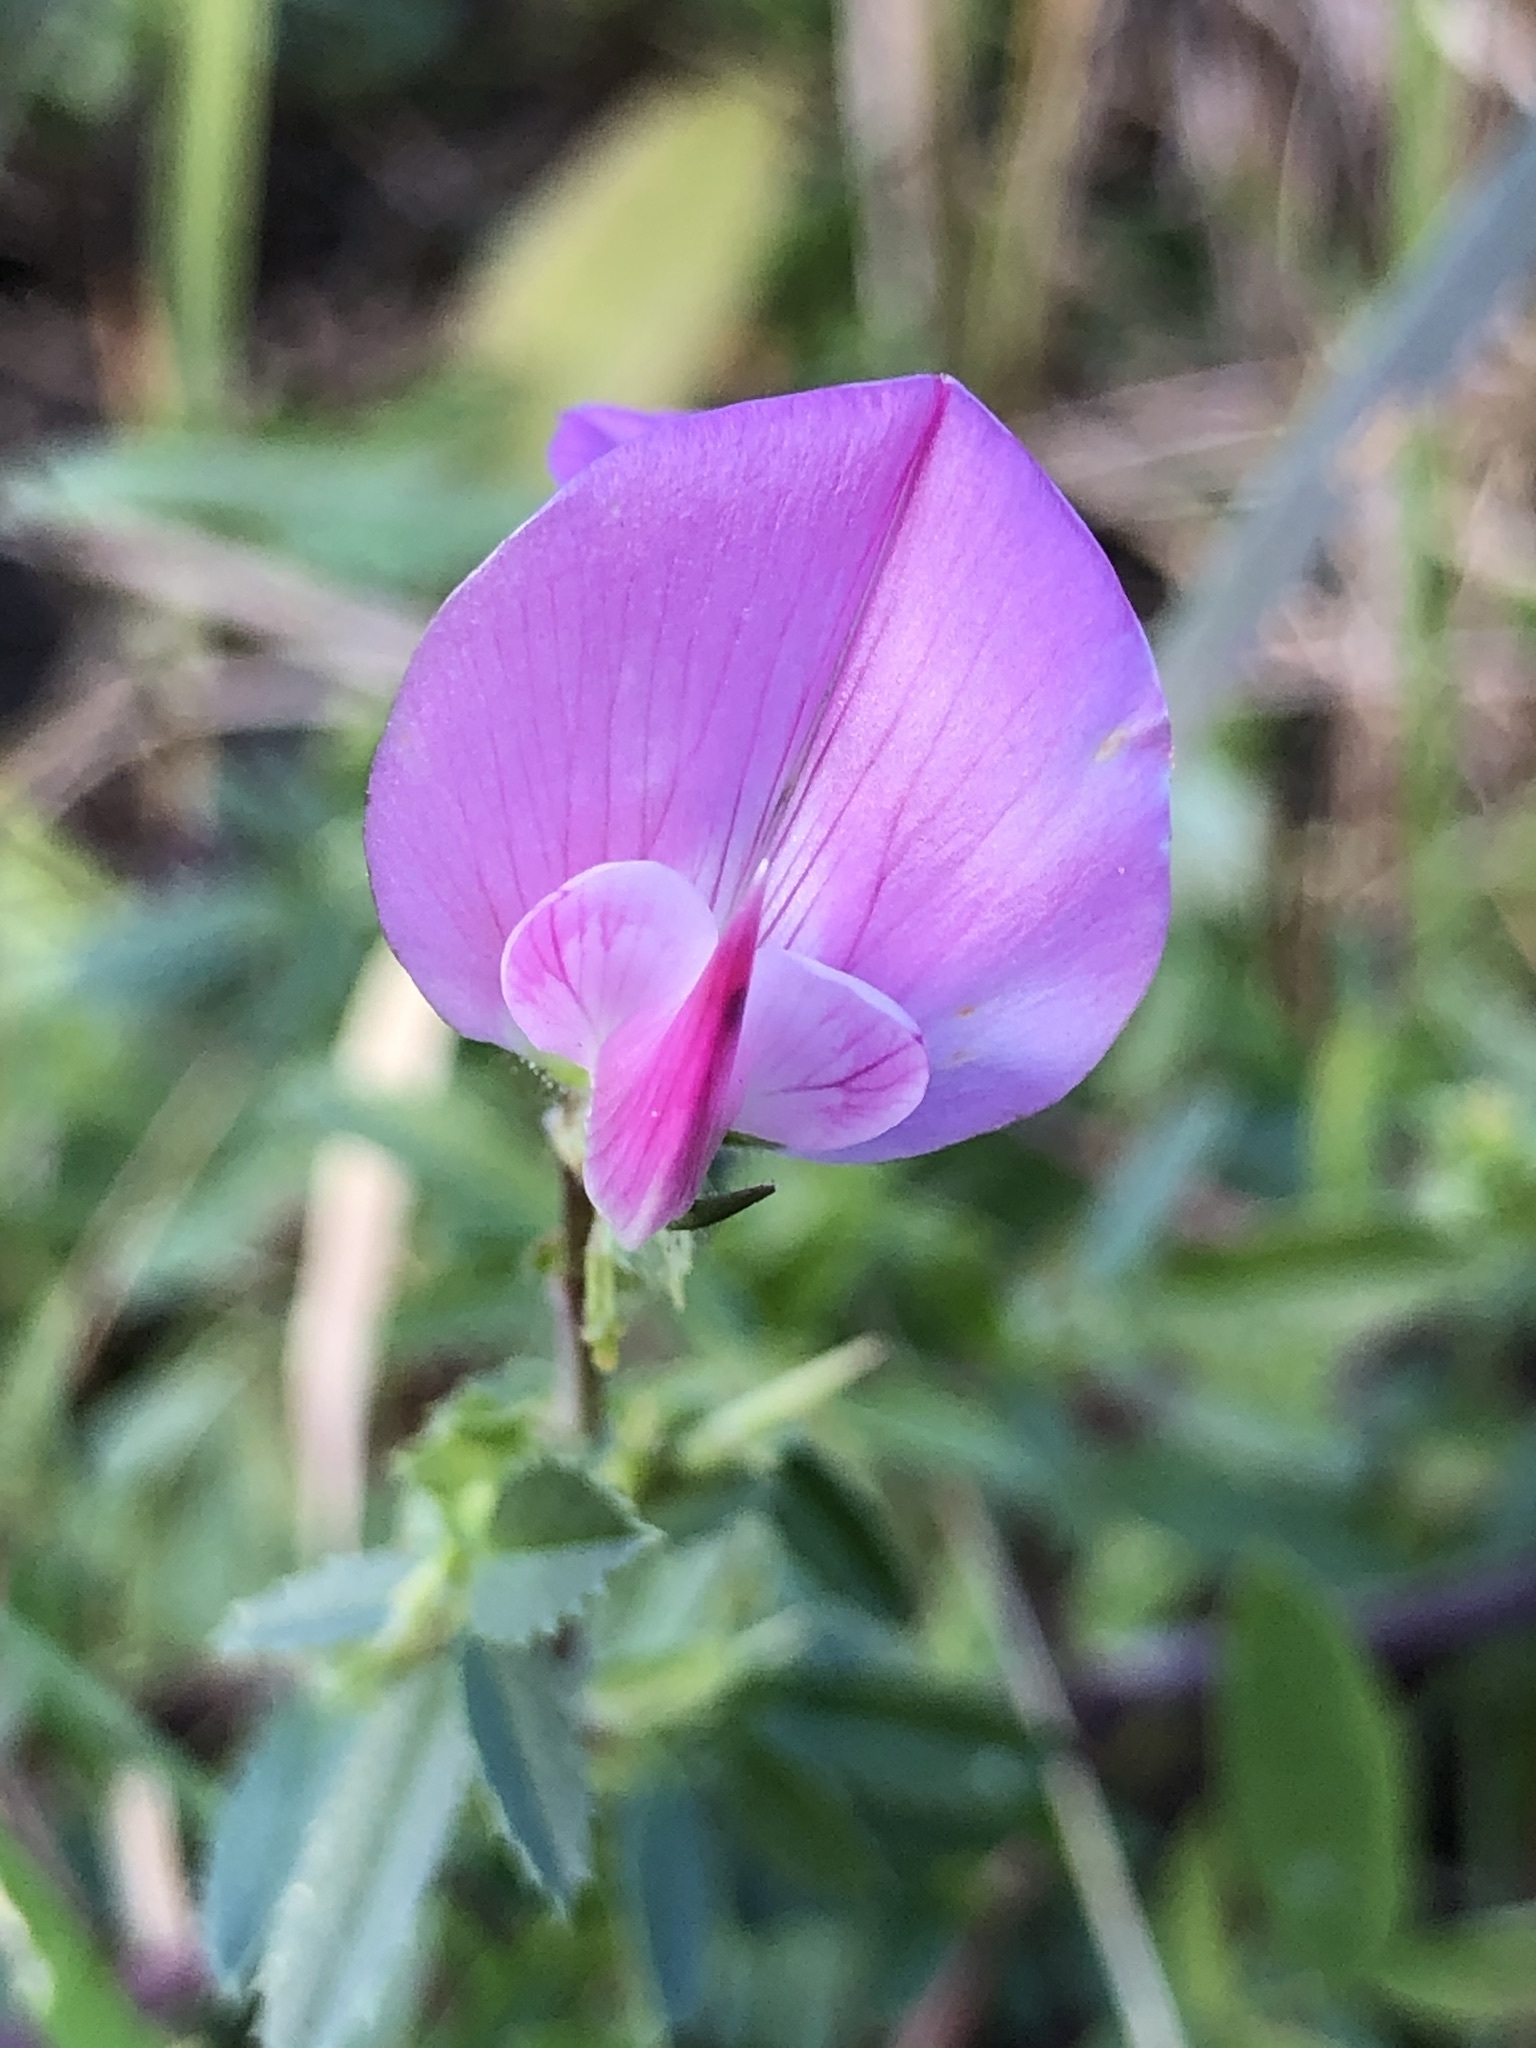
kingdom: Plantae
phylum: Tracheophyta
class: Magnoliopsida
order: Fabales
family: Fabaceae
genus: Ononis
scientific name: Ononis spinosa
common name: Spiny restharrow
